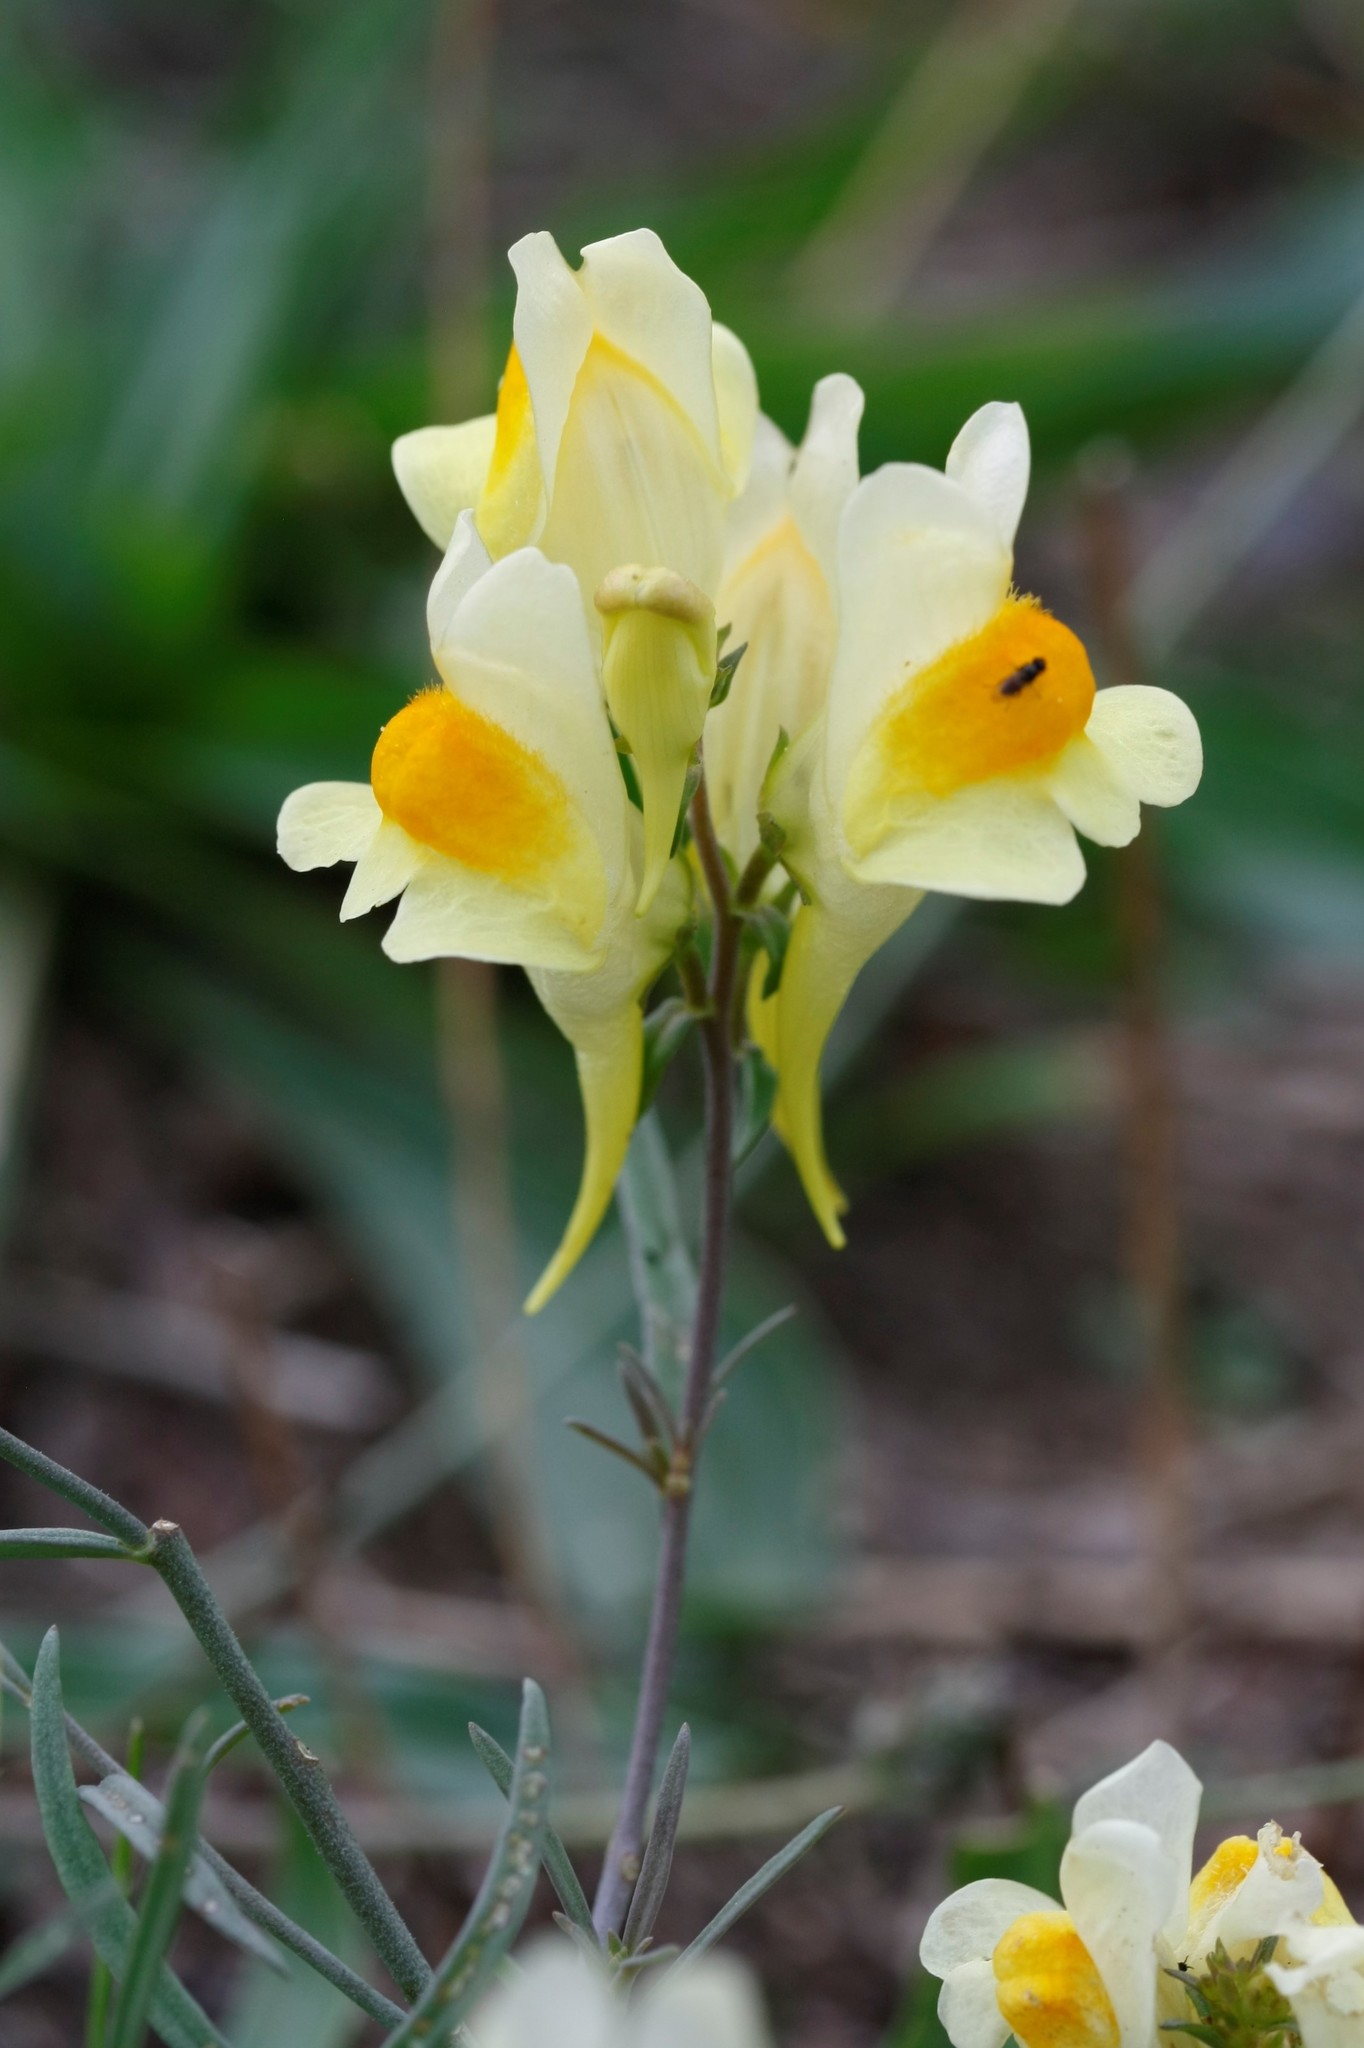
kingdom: Plantae
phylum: Tracheophyta
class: Magnoliopsida
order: Lamiales
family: Plantaginaceae
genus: Linaria
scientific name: Linaria vulgaris
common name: Butter and eggs
